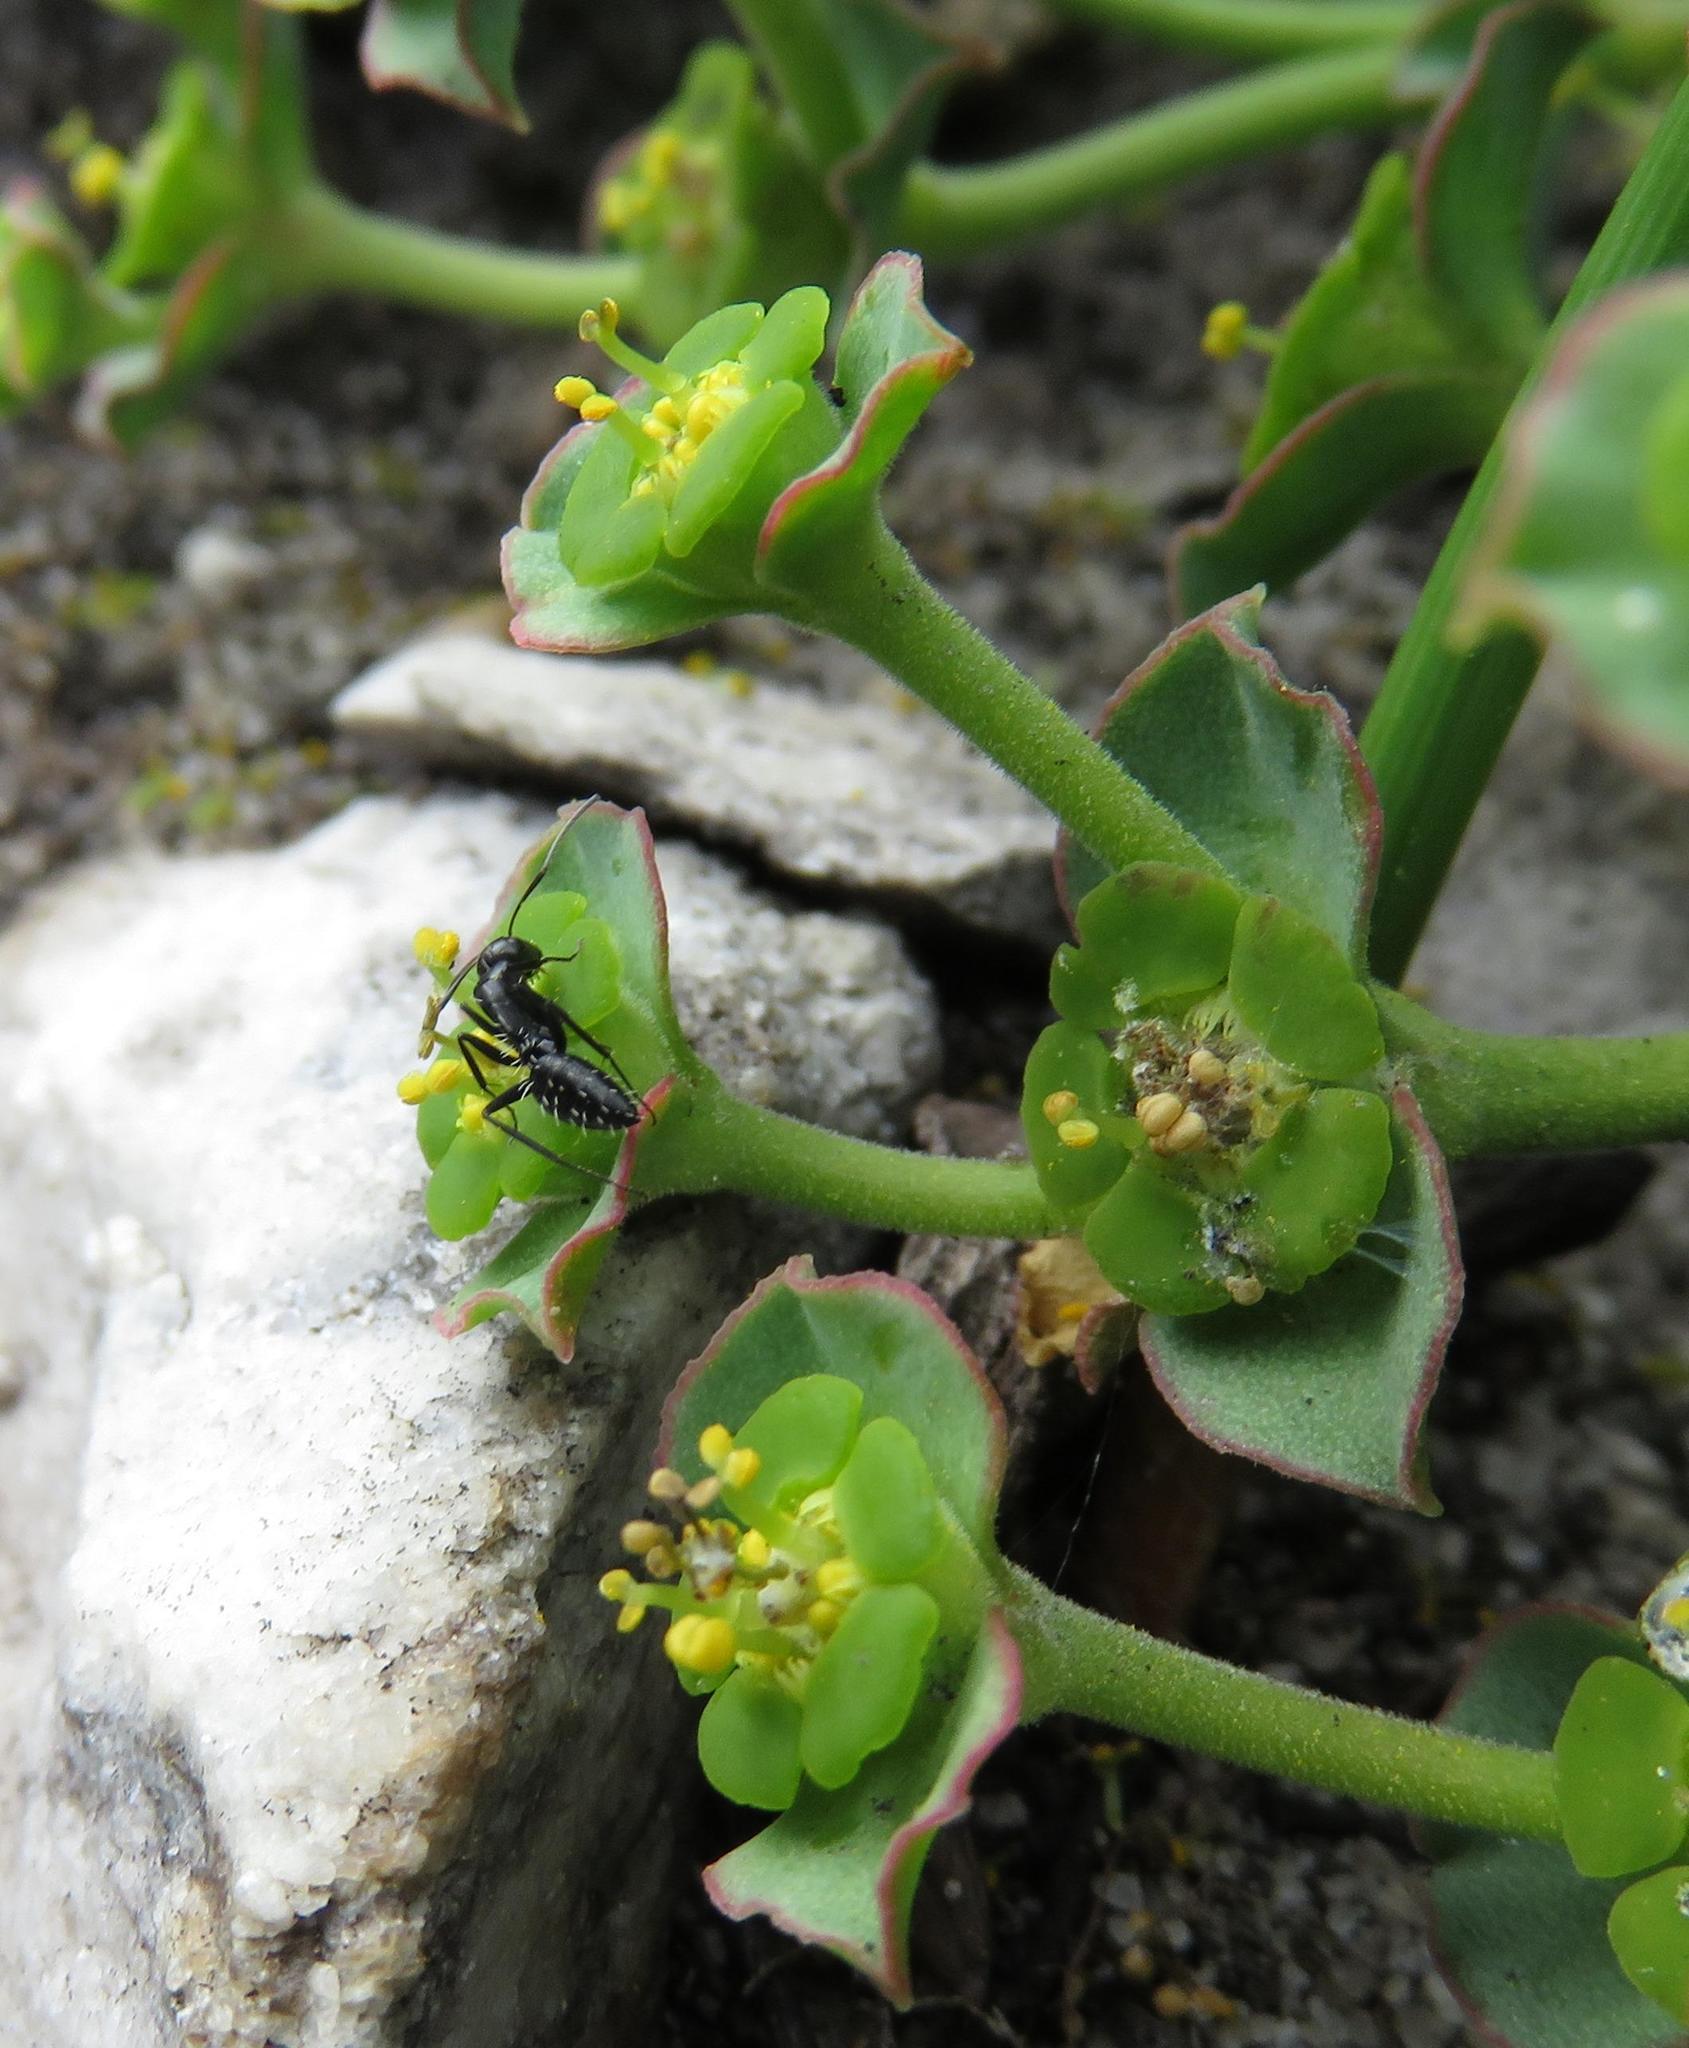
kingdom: Animalia
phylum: Arthropoda
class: Insecta
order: Hymenoptera
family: Formicidae
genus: Camponotus
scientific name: Camponotus niveosetosus
